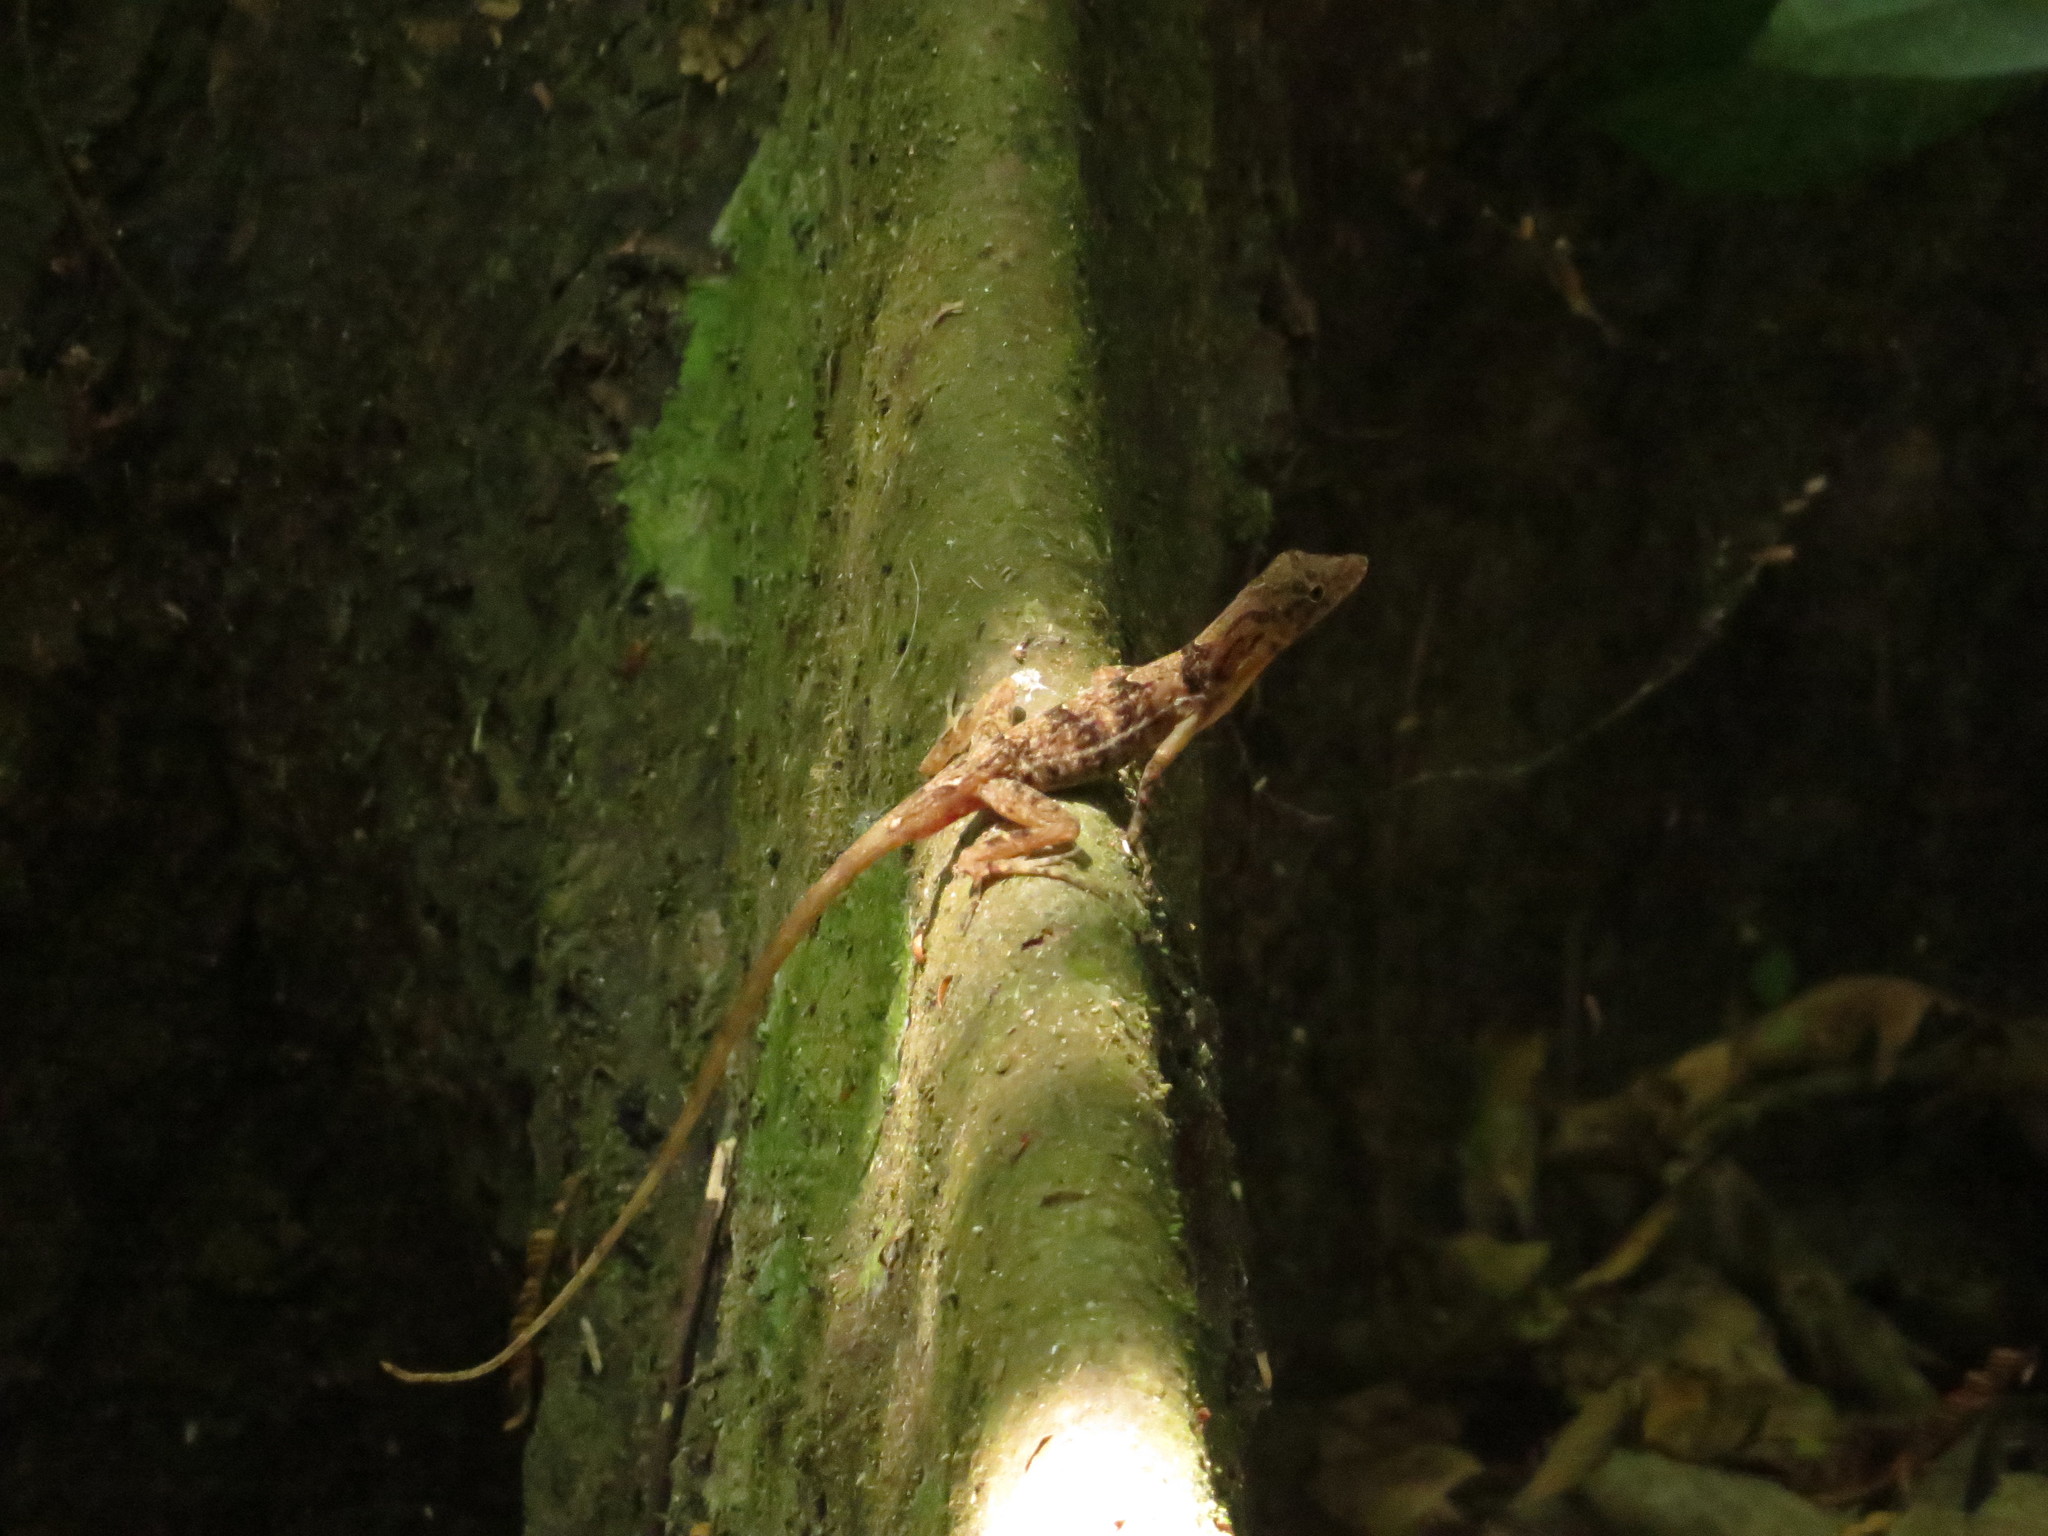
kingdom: Animalia
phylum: Chordata
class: Squamata
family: Dactyloidae
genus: Anolis
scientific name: Anolis polylepis
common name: Many-scaled anole
